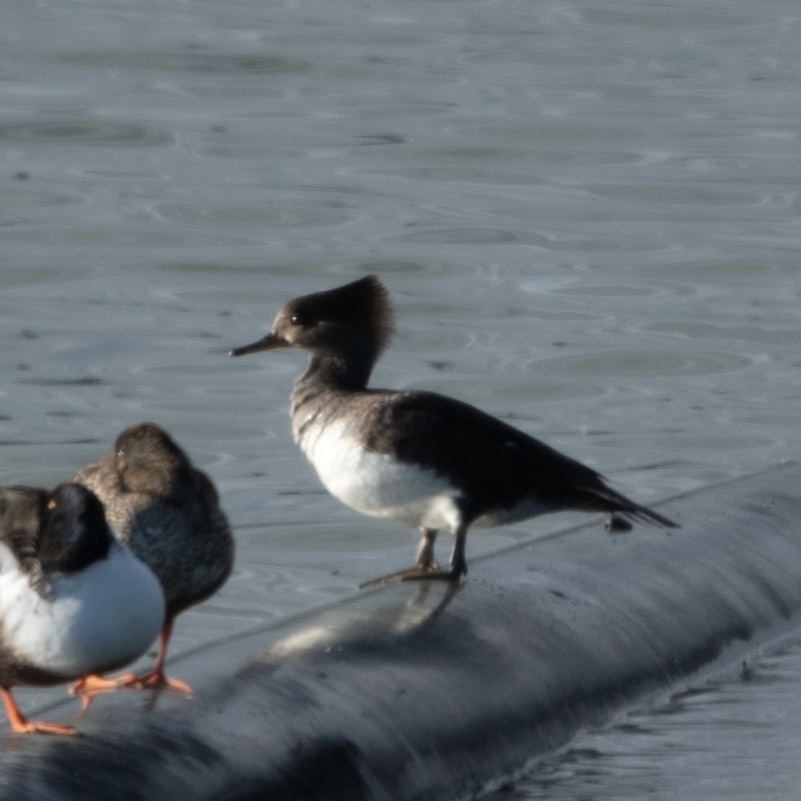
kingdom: Animalia
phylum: Chordata
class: Aves
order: Anseriformes
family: Anatidae
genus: Lophodytes
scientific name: Lophodytes cucullatus
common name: Hooded merganser
